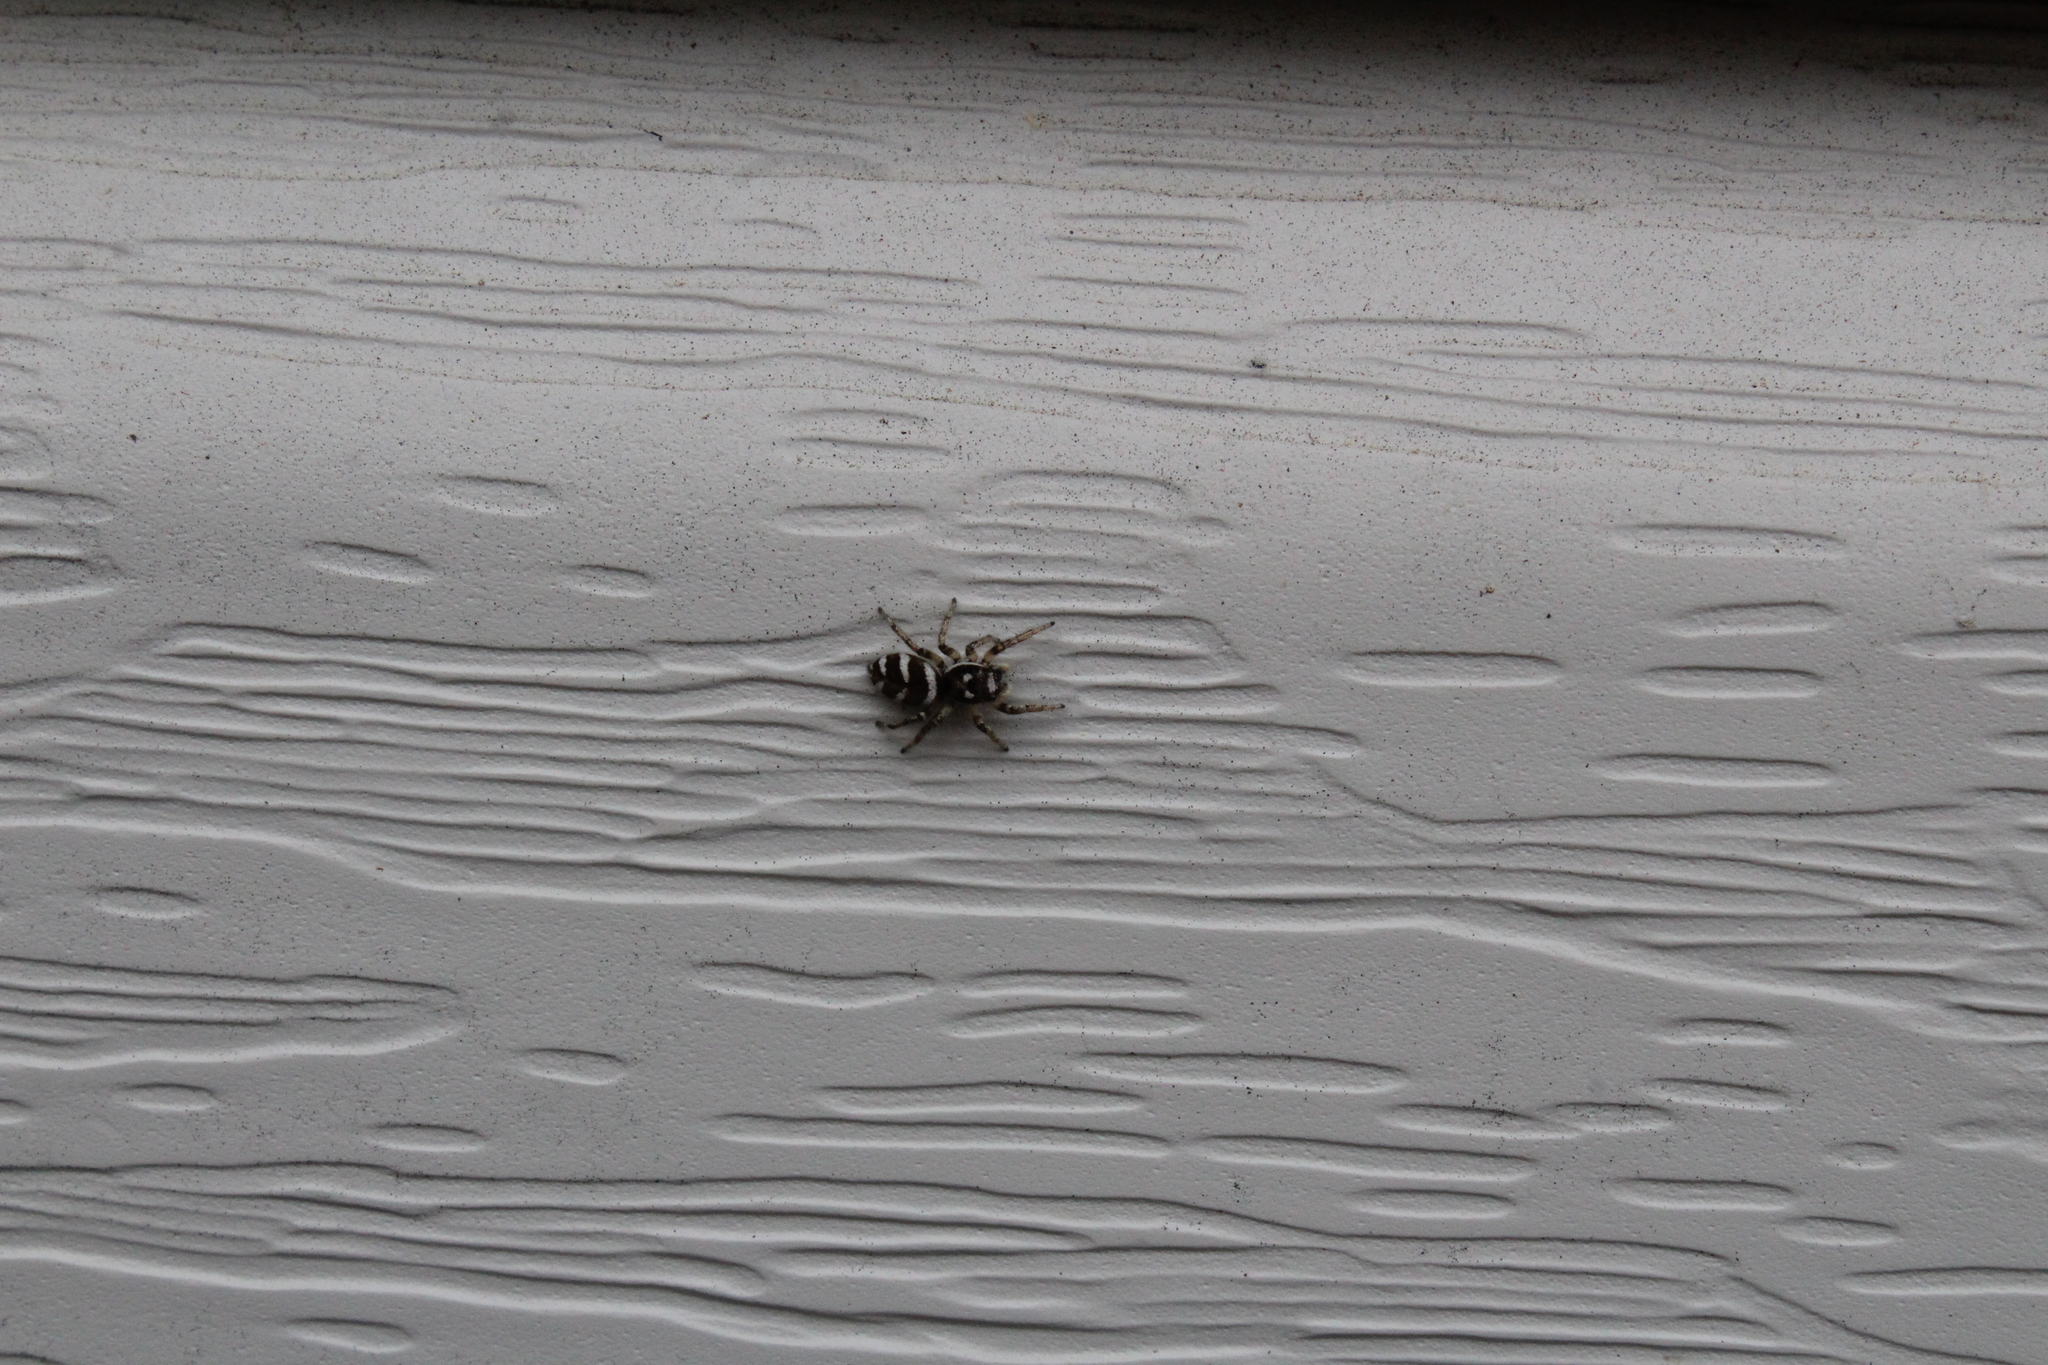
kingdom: Animalia
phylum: Arthropoda
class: Arachnida
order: Araneae
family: Salticidae
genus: Salticus
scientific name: Salticus scenicus
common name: Zebra jumper
